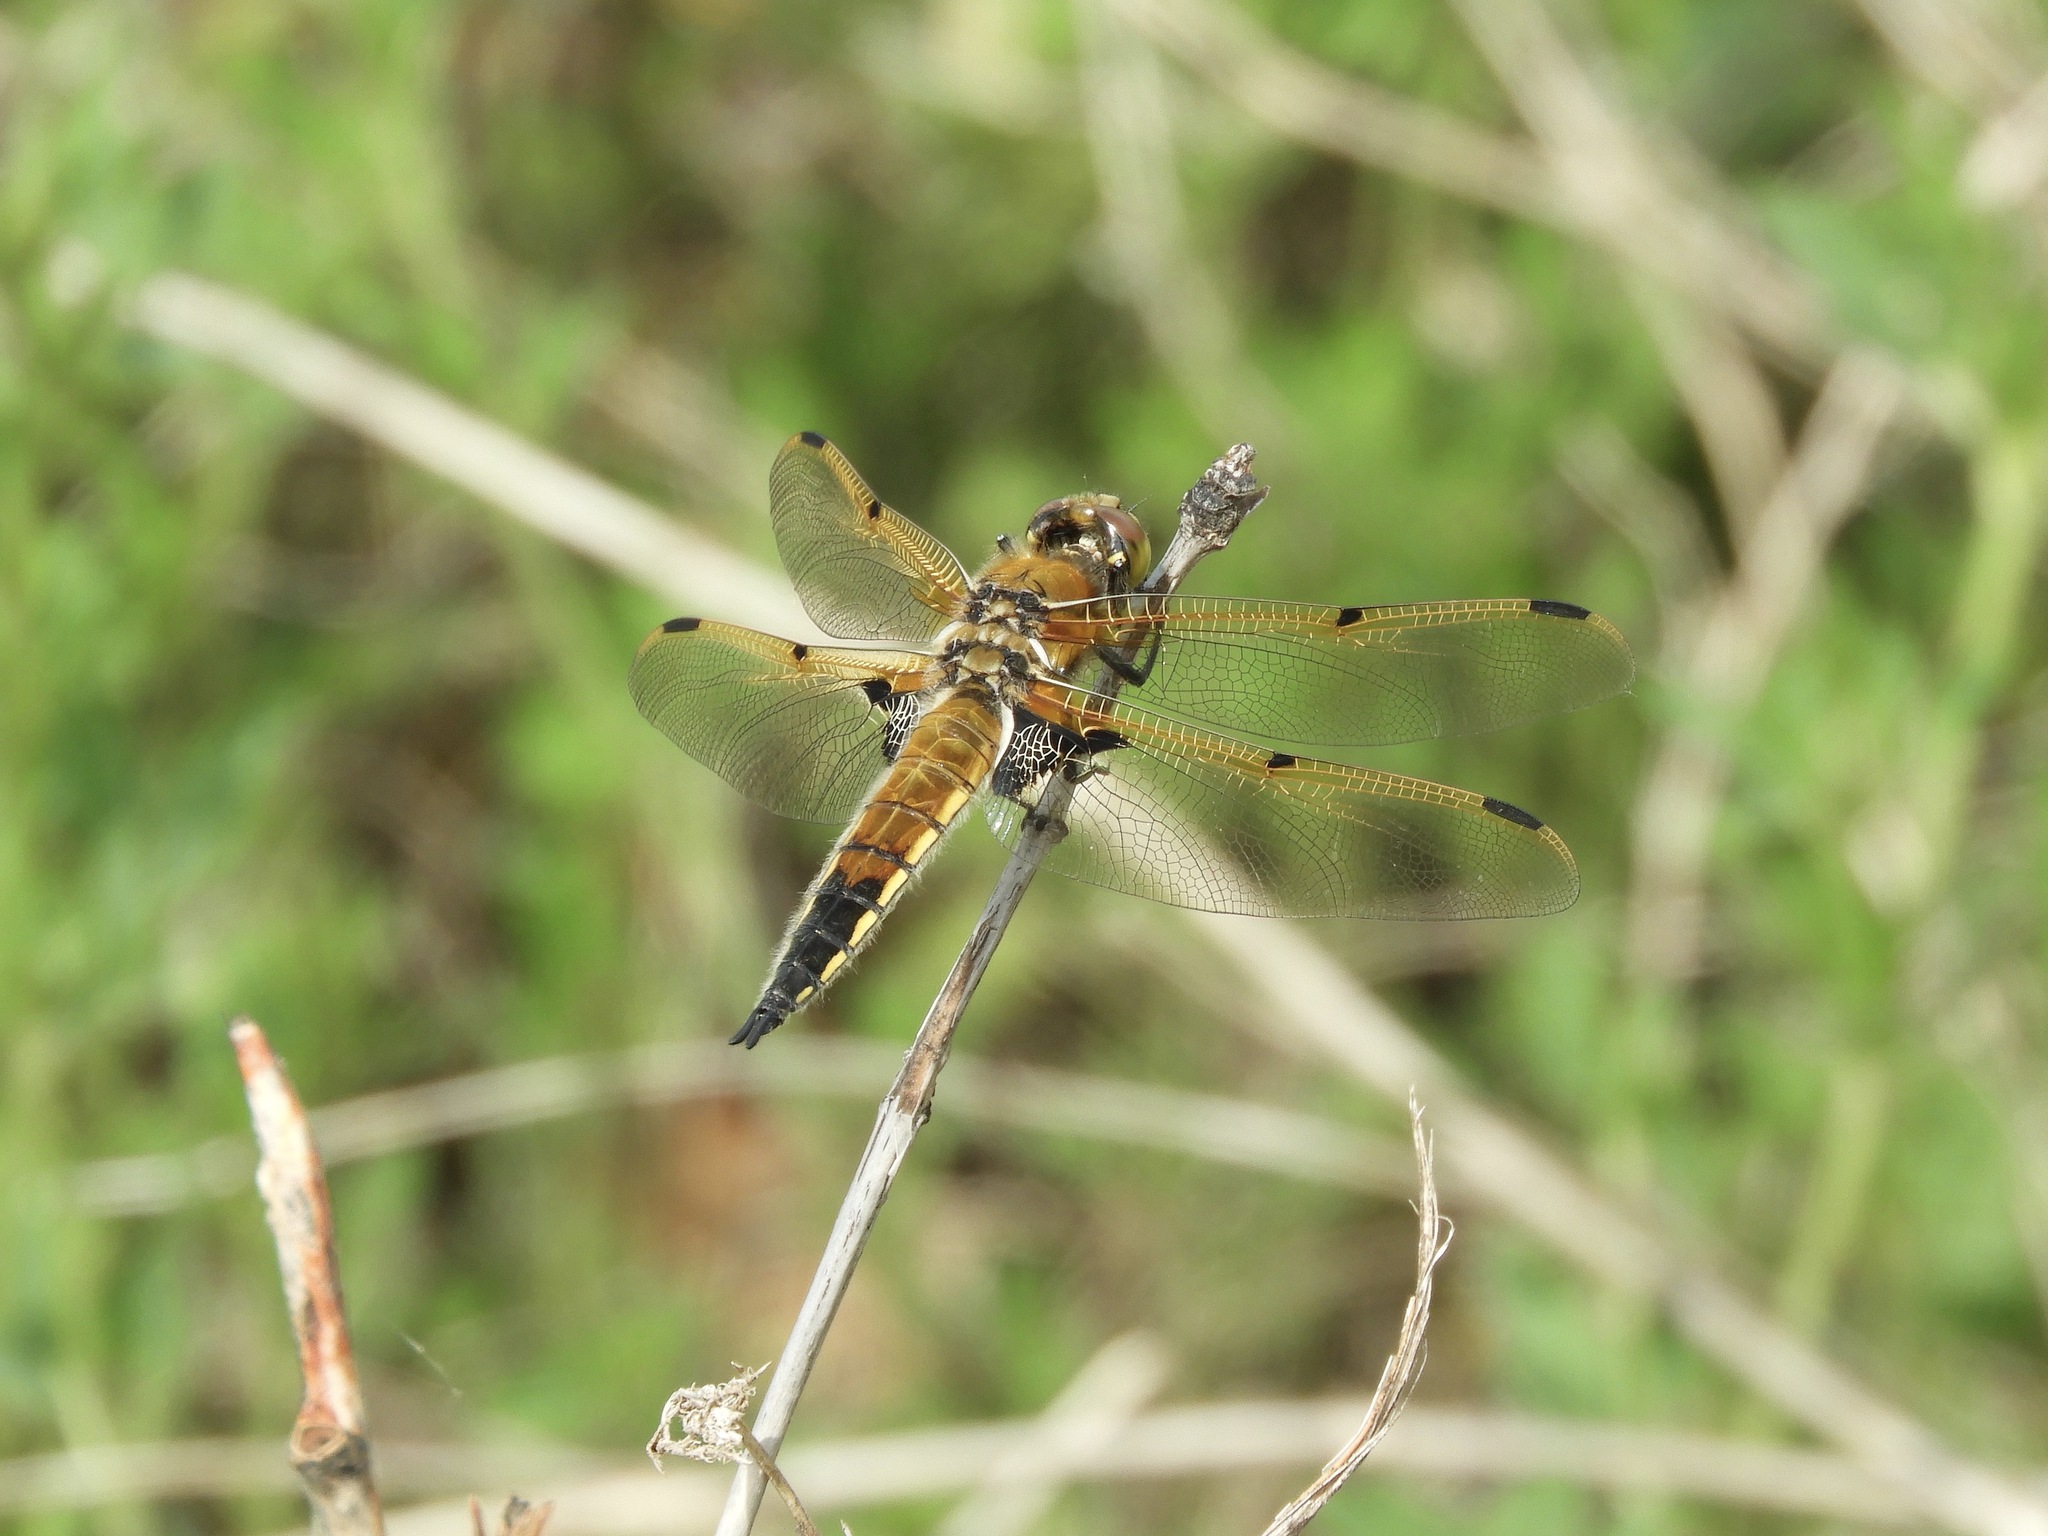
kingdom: Animalia
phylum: Arthropoda
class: Insecta
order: Odonata
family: Libellulidae
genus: Libellula
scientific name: Libellula quadrimaculata
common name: Four-spotted chaser
